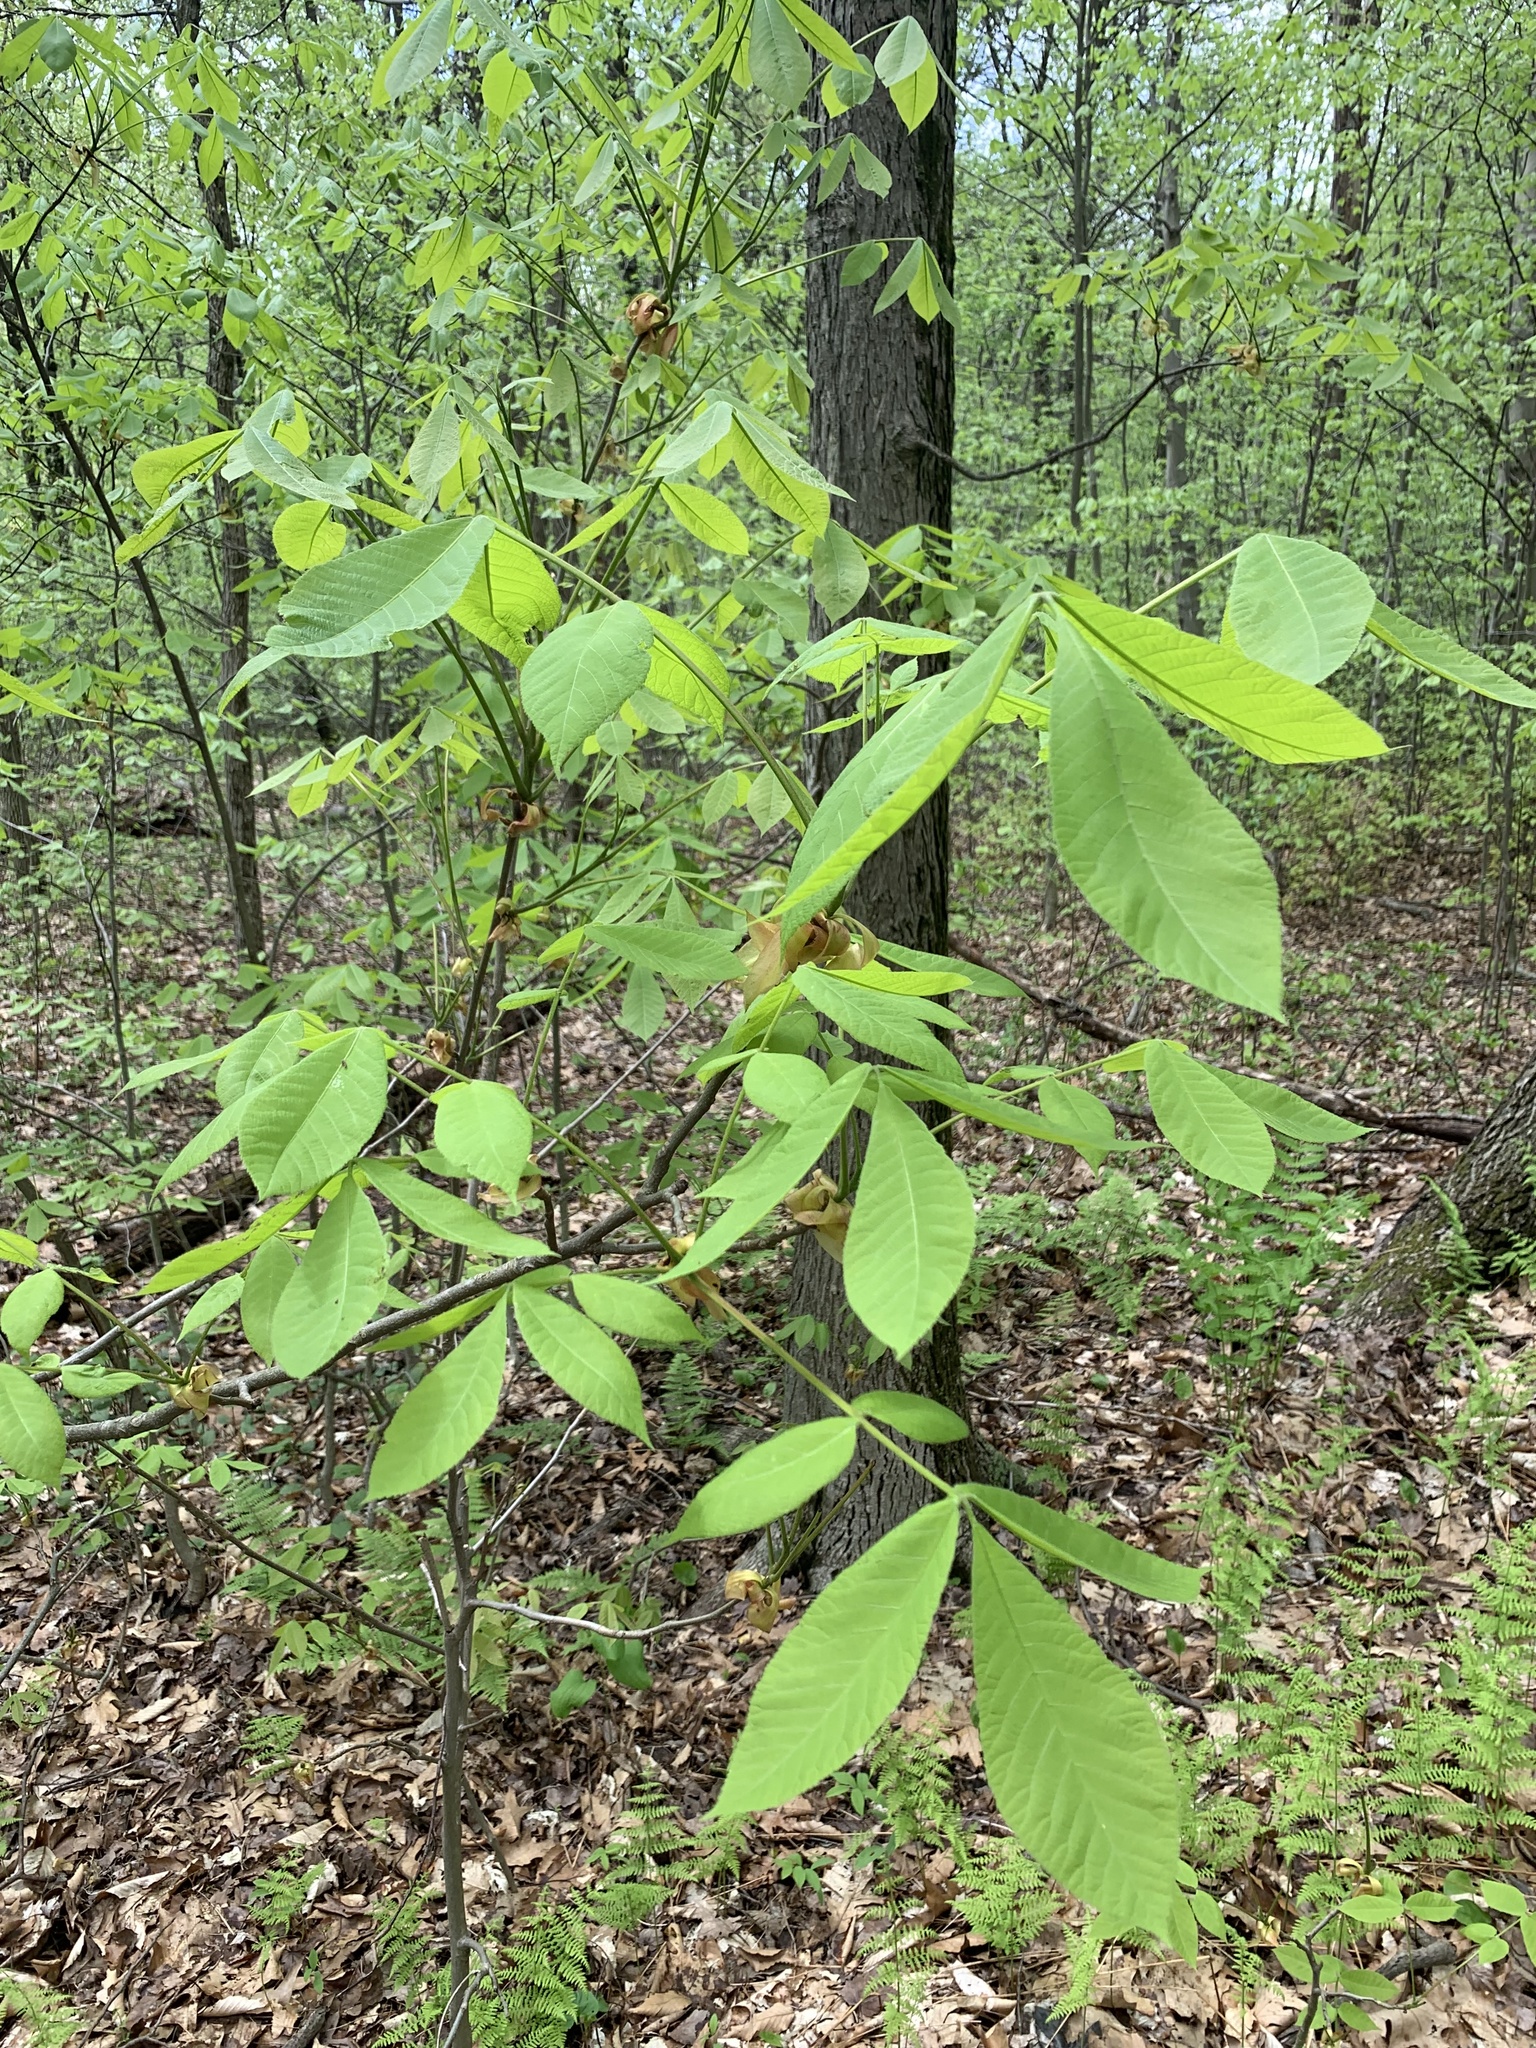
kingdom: Plantae
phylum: Tracheophyta
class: Magnoliopsida
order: Fagales
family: Juglandaceae
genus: Carya
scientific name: Carya ovata
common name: Shagbark hickory
